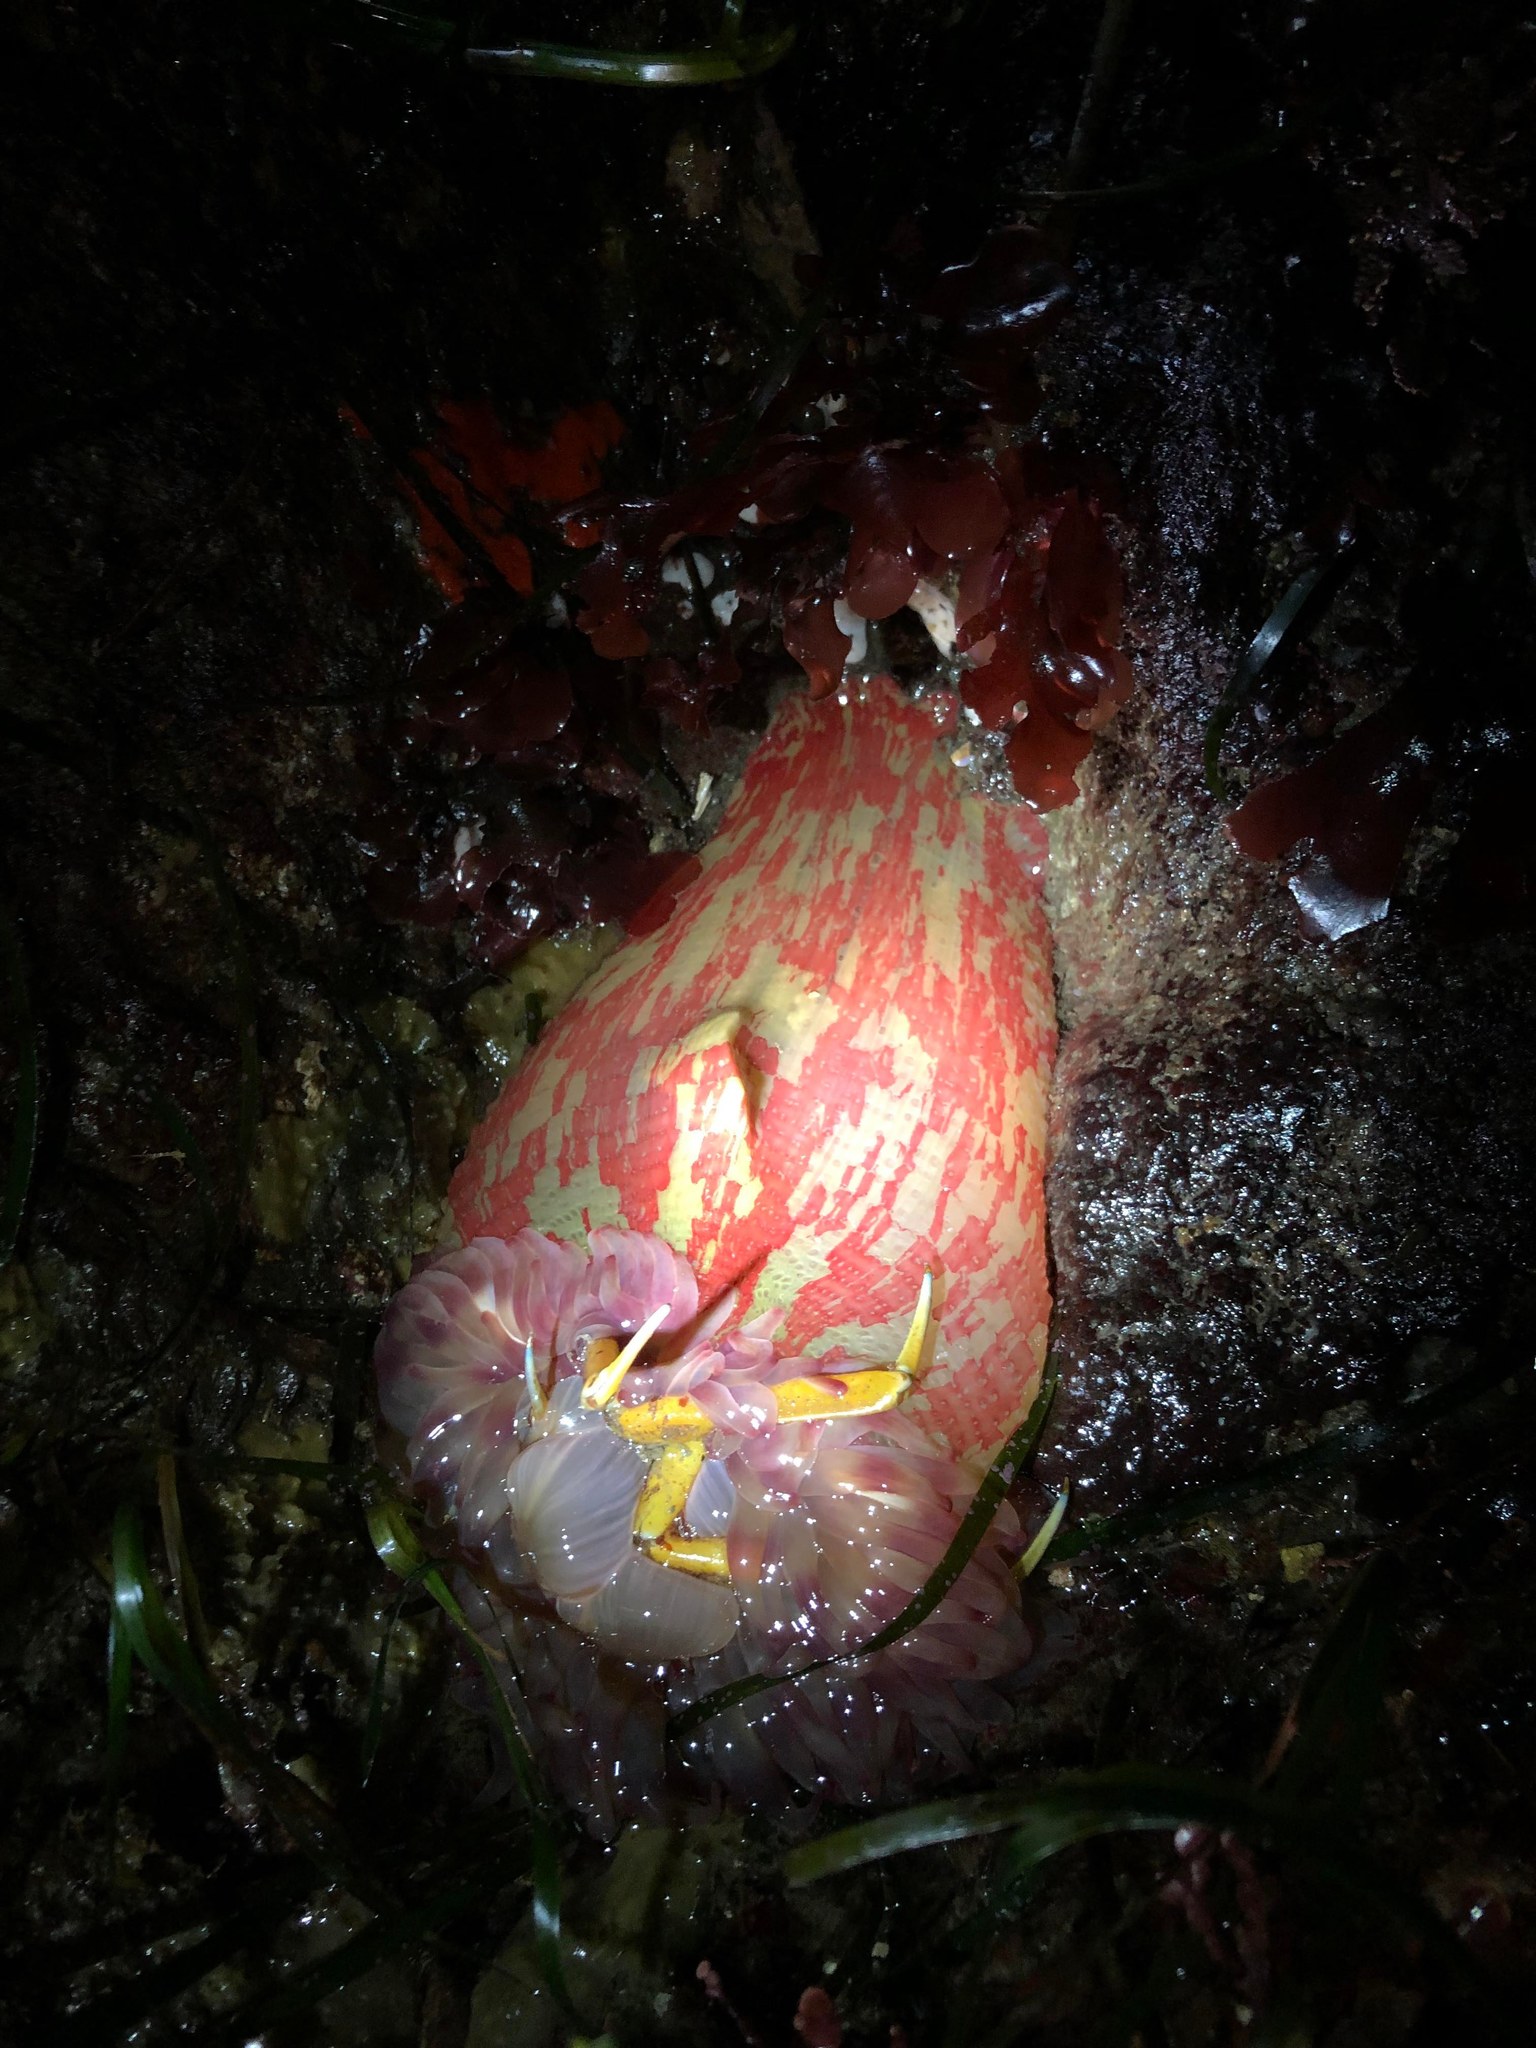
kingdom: Animalia
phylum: Cnidaria
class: Anthozoa
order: Actiniaria
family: Actiniidae
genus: Urticina
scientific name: Urticina grebelnyi
